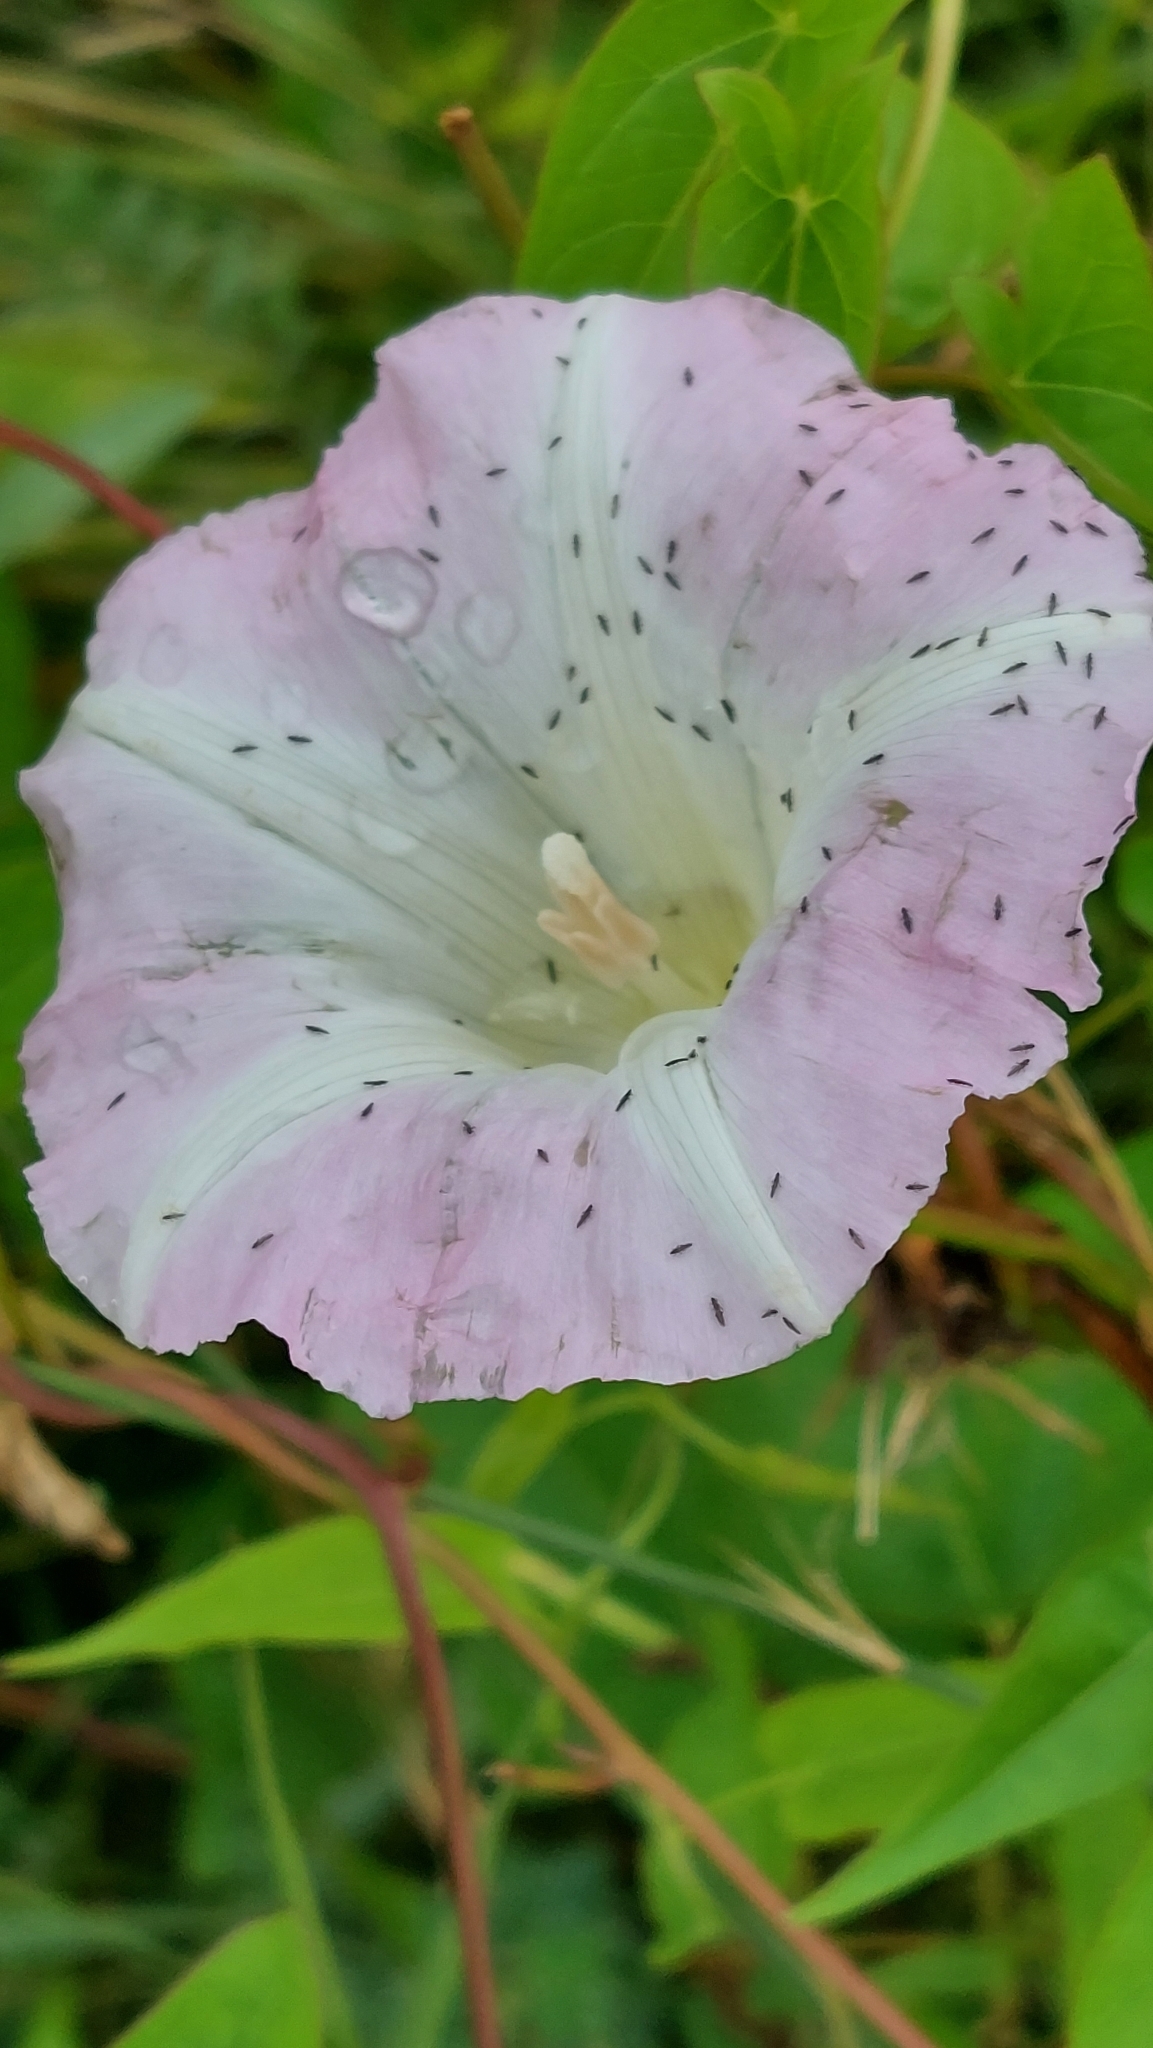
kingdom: Plantae
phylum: Tracheophyta
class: Magnoliopsida
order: Solanales
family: Convolvulaceae
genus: Calystegia
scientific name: Calystegia sepium
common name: Hedge bindweed
